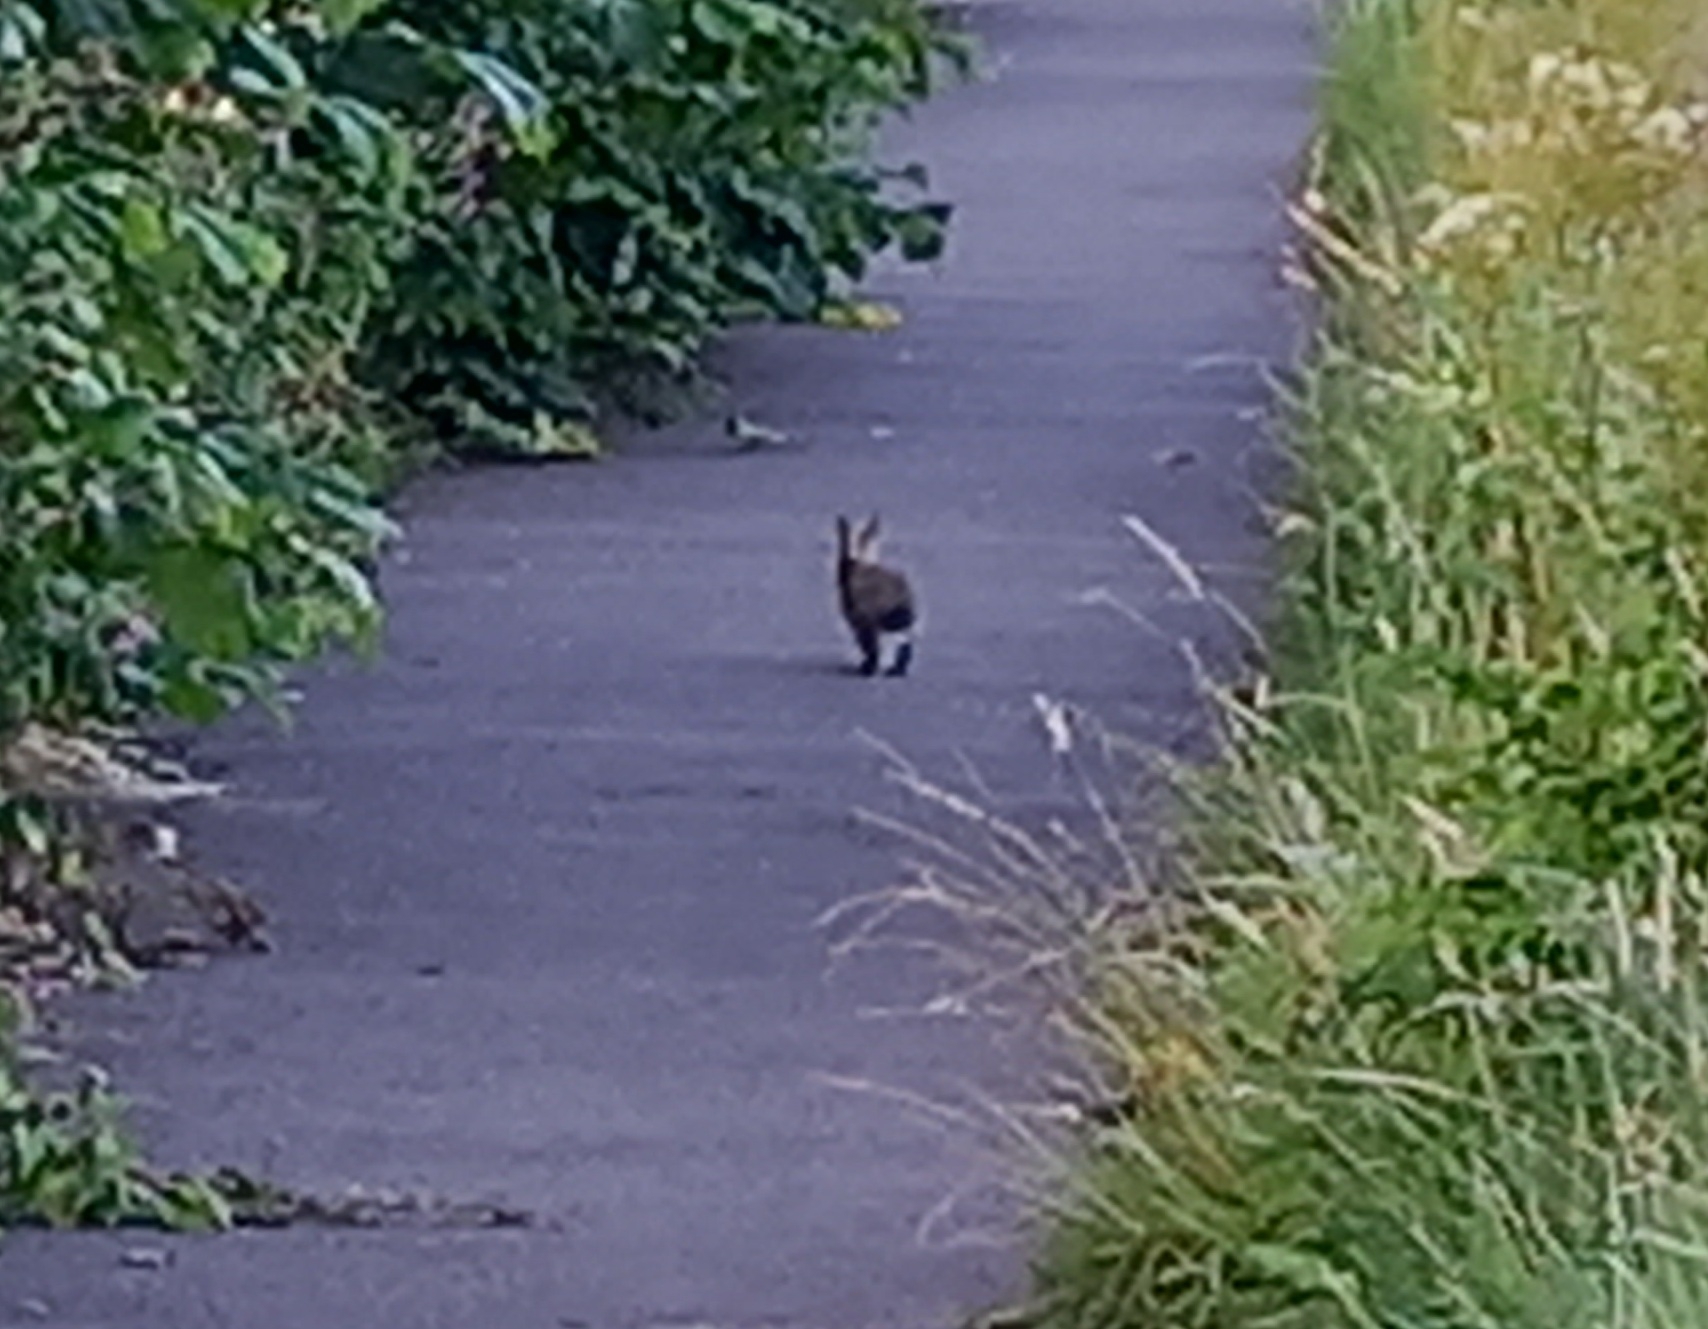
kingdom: Animalia
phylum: Chordata
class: Mammalia
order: Lagomorpha
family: Leporidae
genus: Oryctolagus
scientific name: Oryctolagus cuniculus
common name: European rabbit
